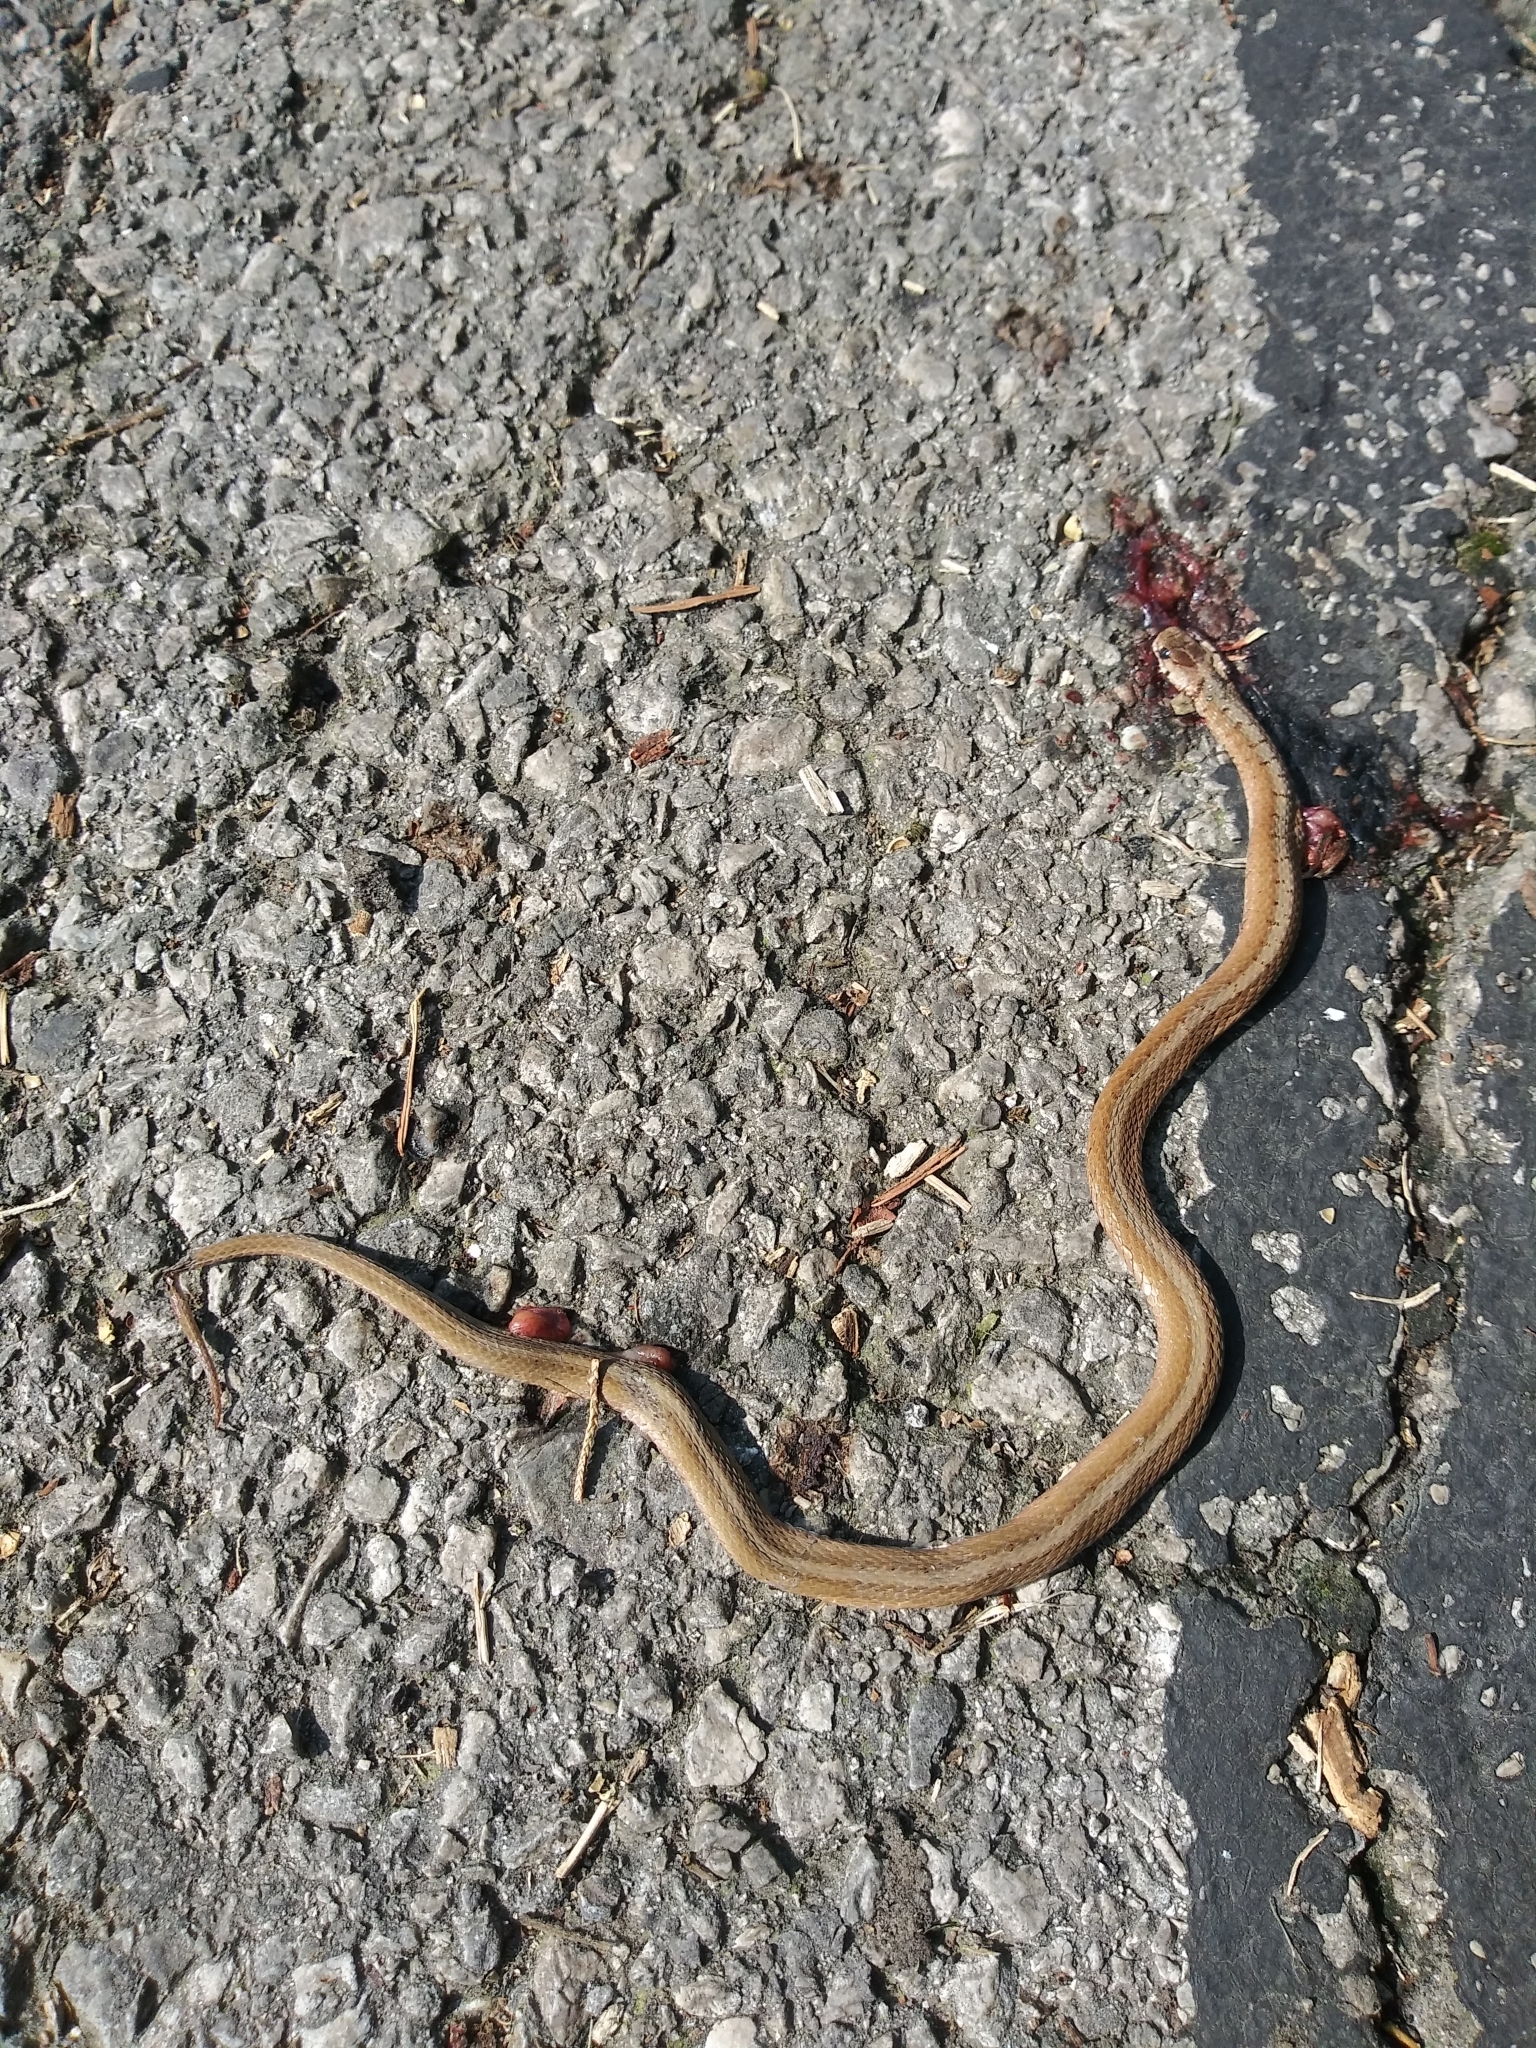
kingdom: Animalia
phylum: Chordata
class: Squamata
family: Colubridae
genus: Storeria
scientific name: Storeria dekayi
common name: (dekay’s) brown snake
